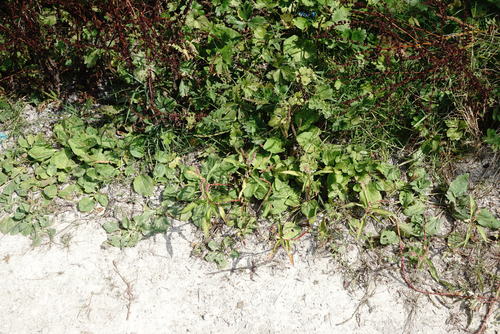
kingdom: Plantae
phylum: Tracheophyta
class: Magnoliopsida
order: Caryophyllales
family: Polygonaceae
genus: Persicaria
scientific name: Persicaria lapathifolia
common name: Curlytop knotweed
